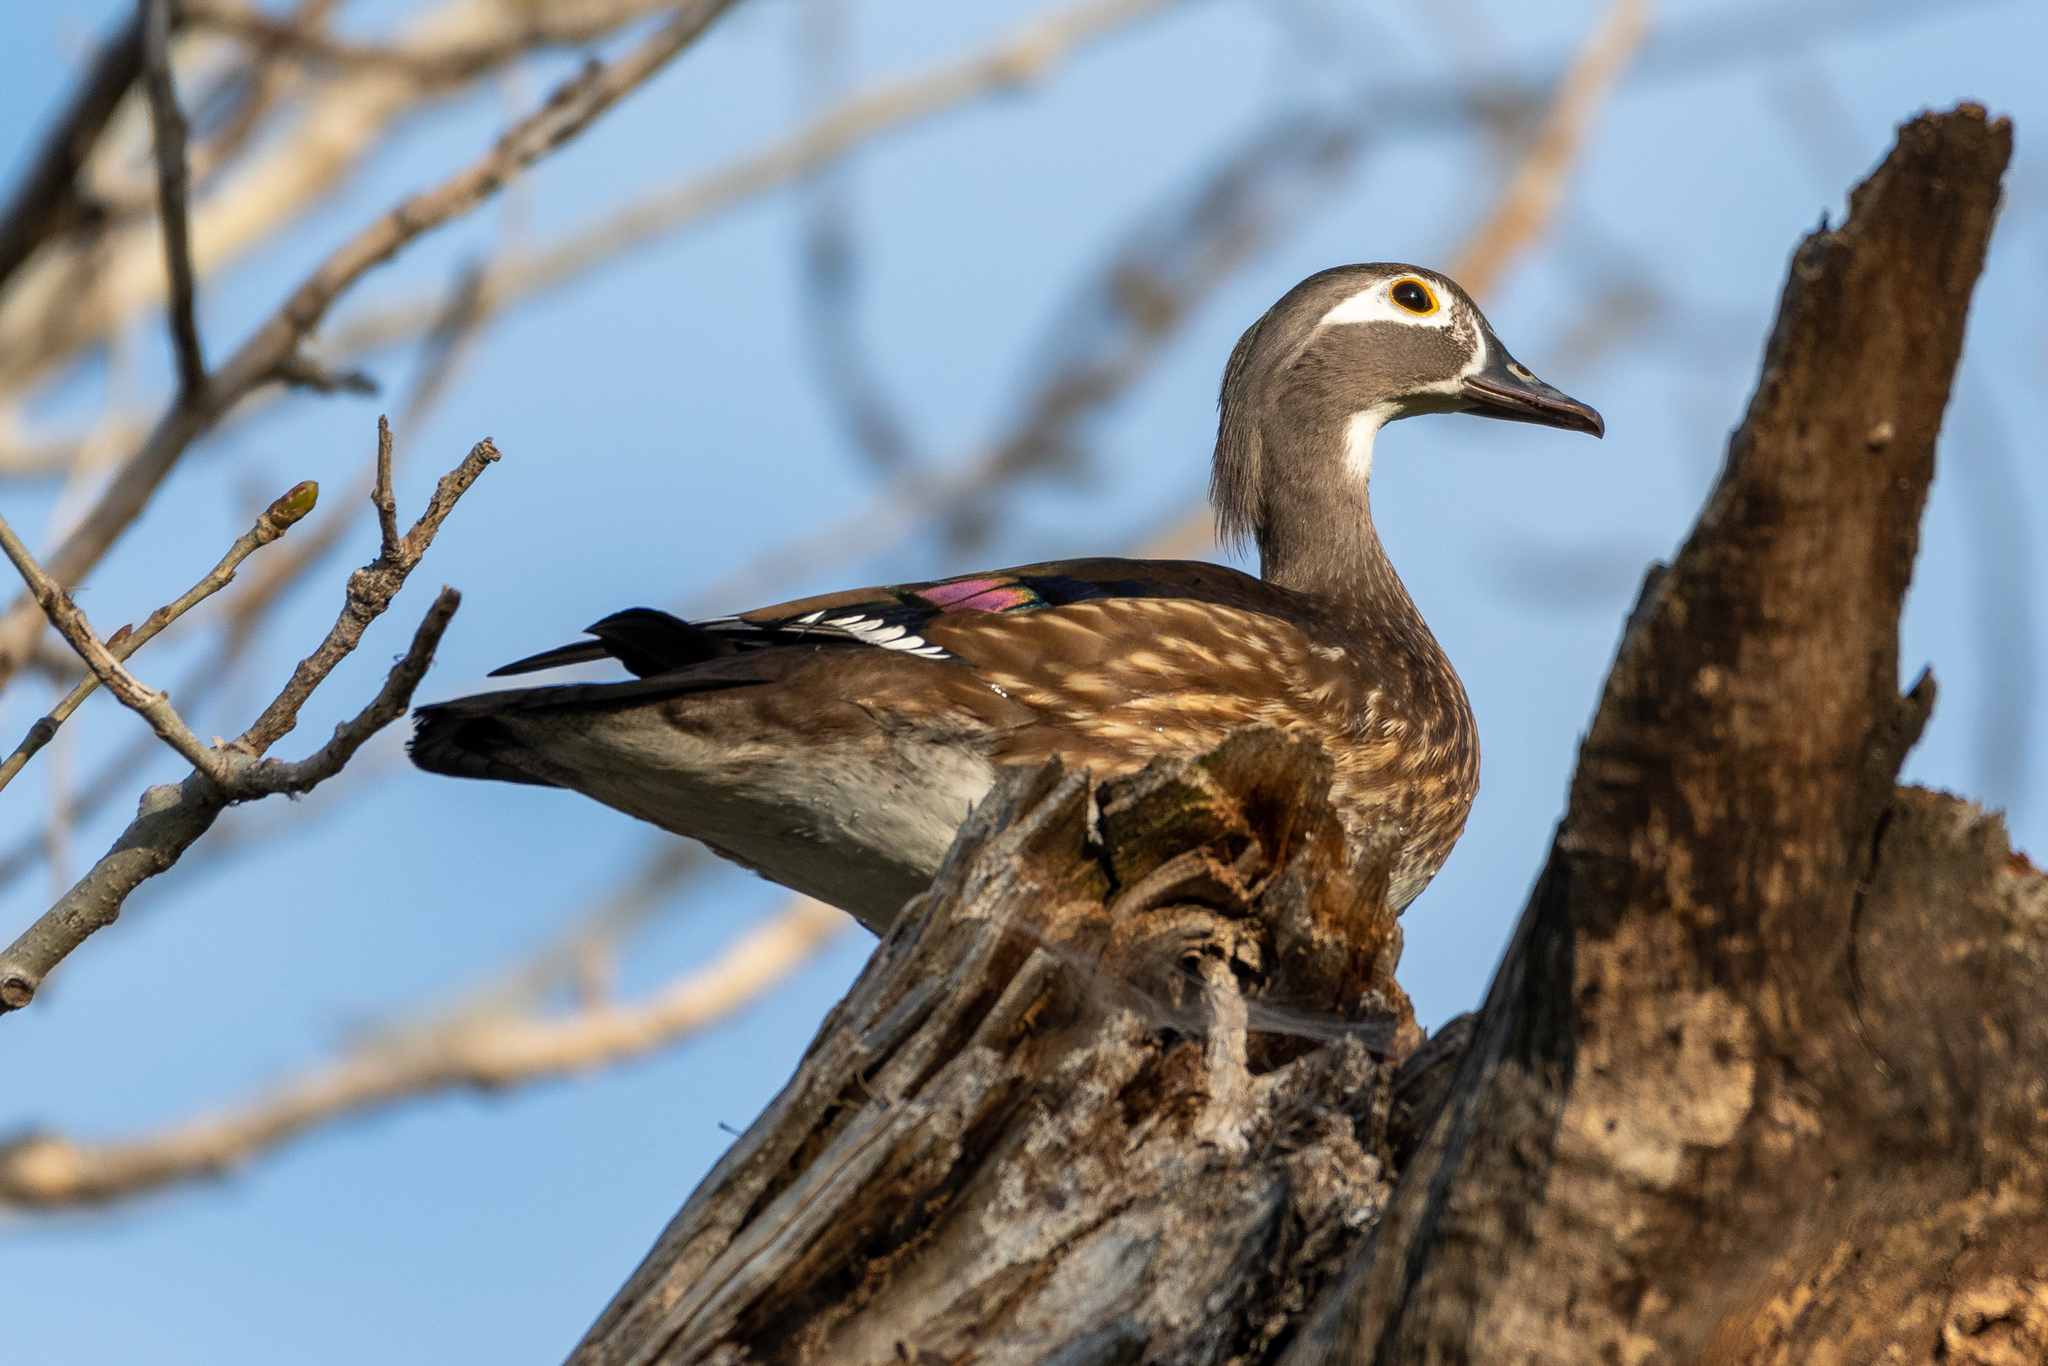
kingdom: Animalia
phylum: Chordata
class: Aves
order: Anseriformes
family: Anatidae
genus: Aix
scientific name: Aix sponsa
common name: Wood duck
